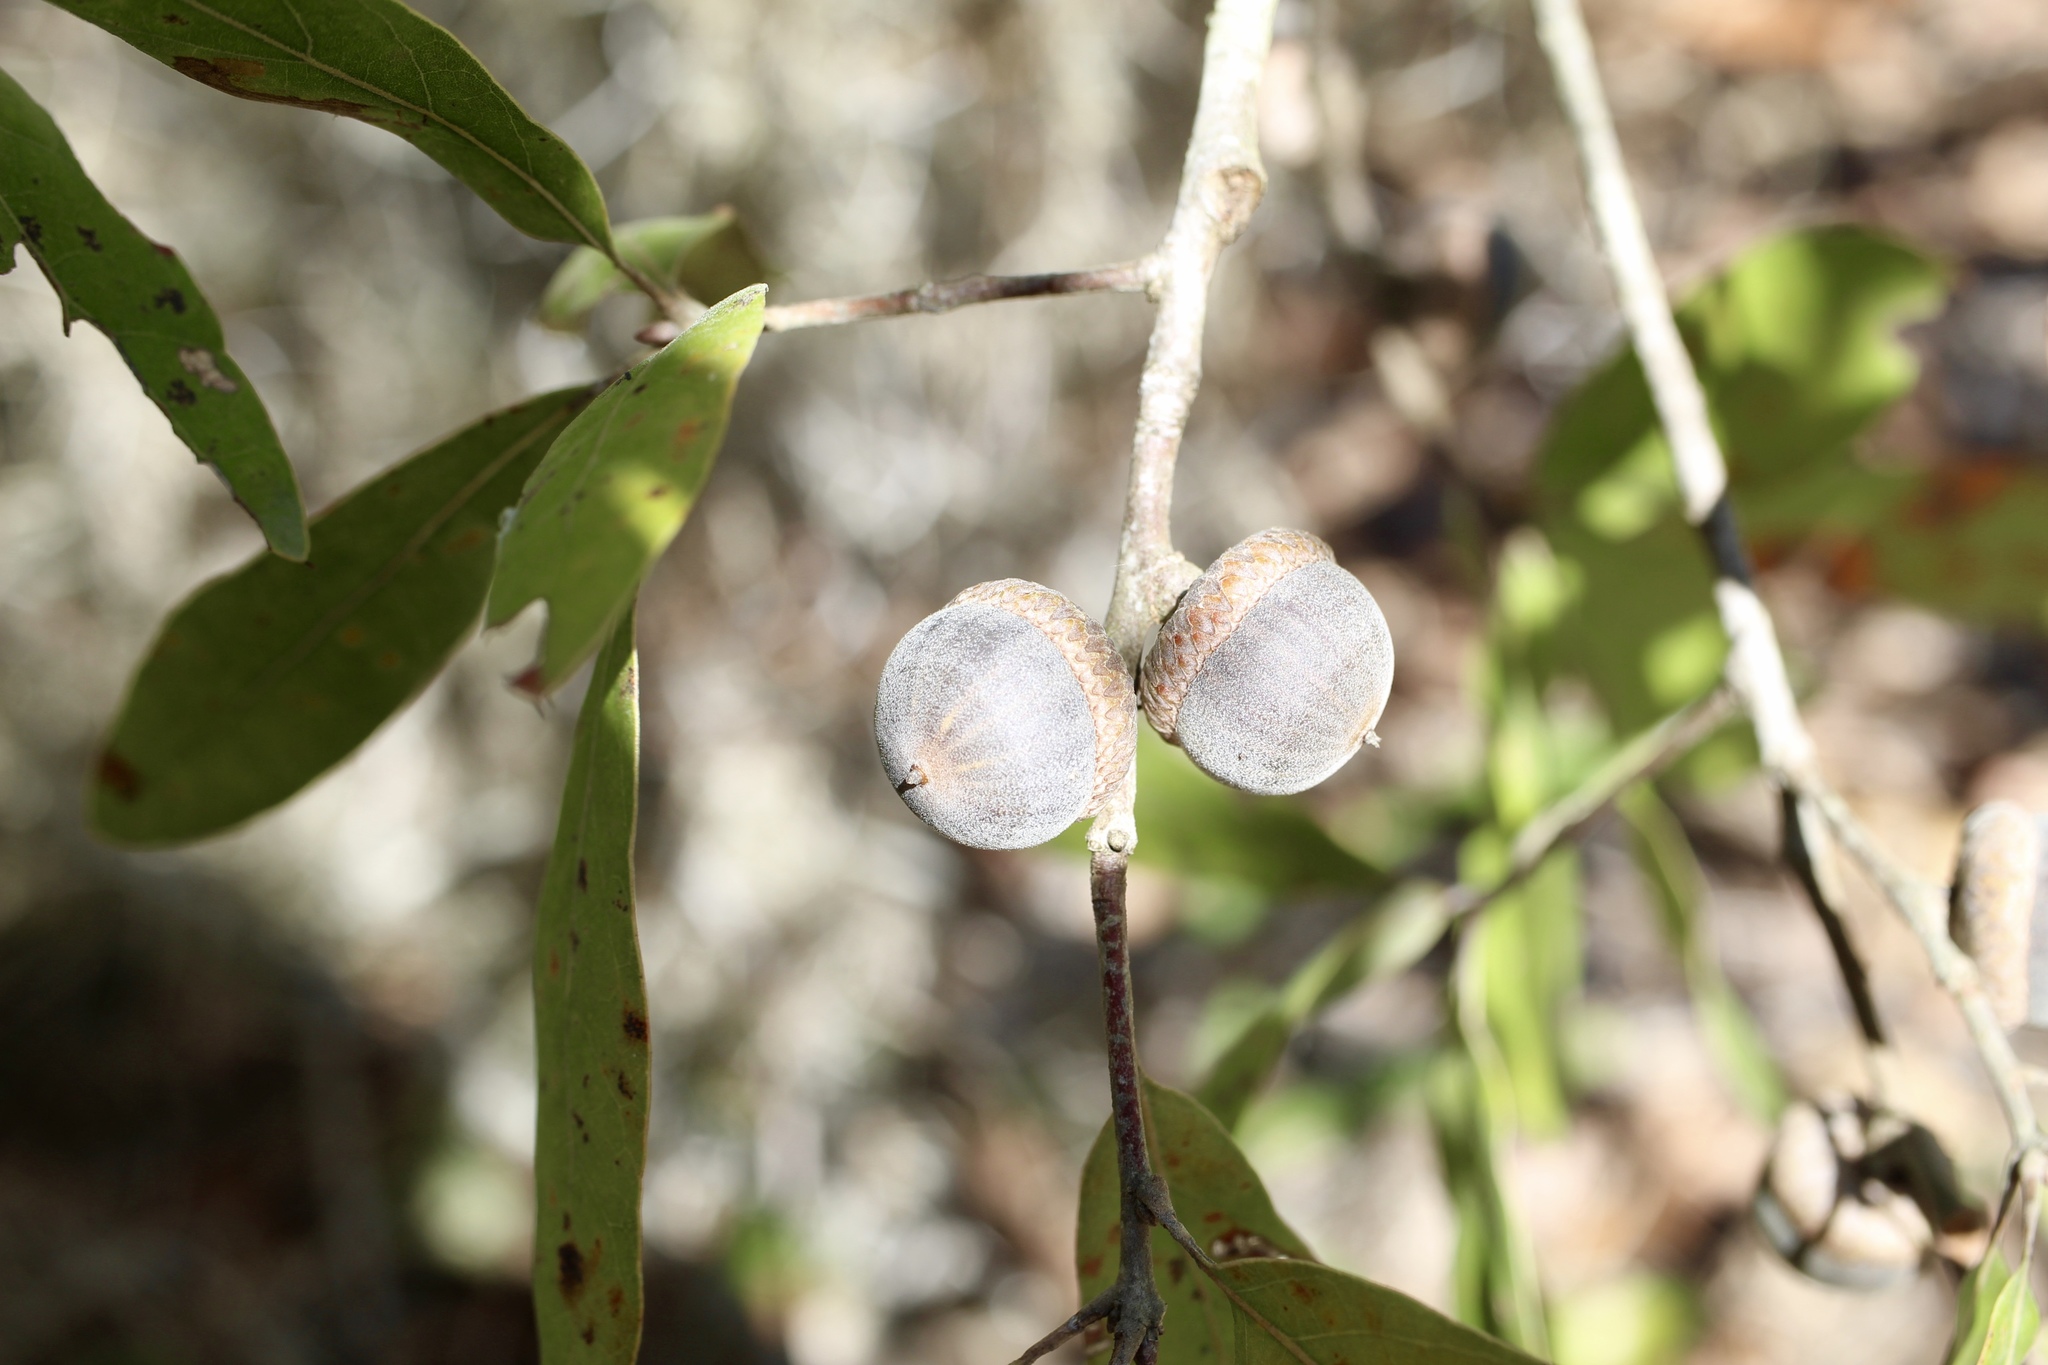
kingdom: Plantae
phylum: Tracheophyta
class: Magnoliopsida
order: Fagales
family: Fagaceae
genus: Quercus
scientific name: Quercus hemisphaerica
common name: Darlington oak
